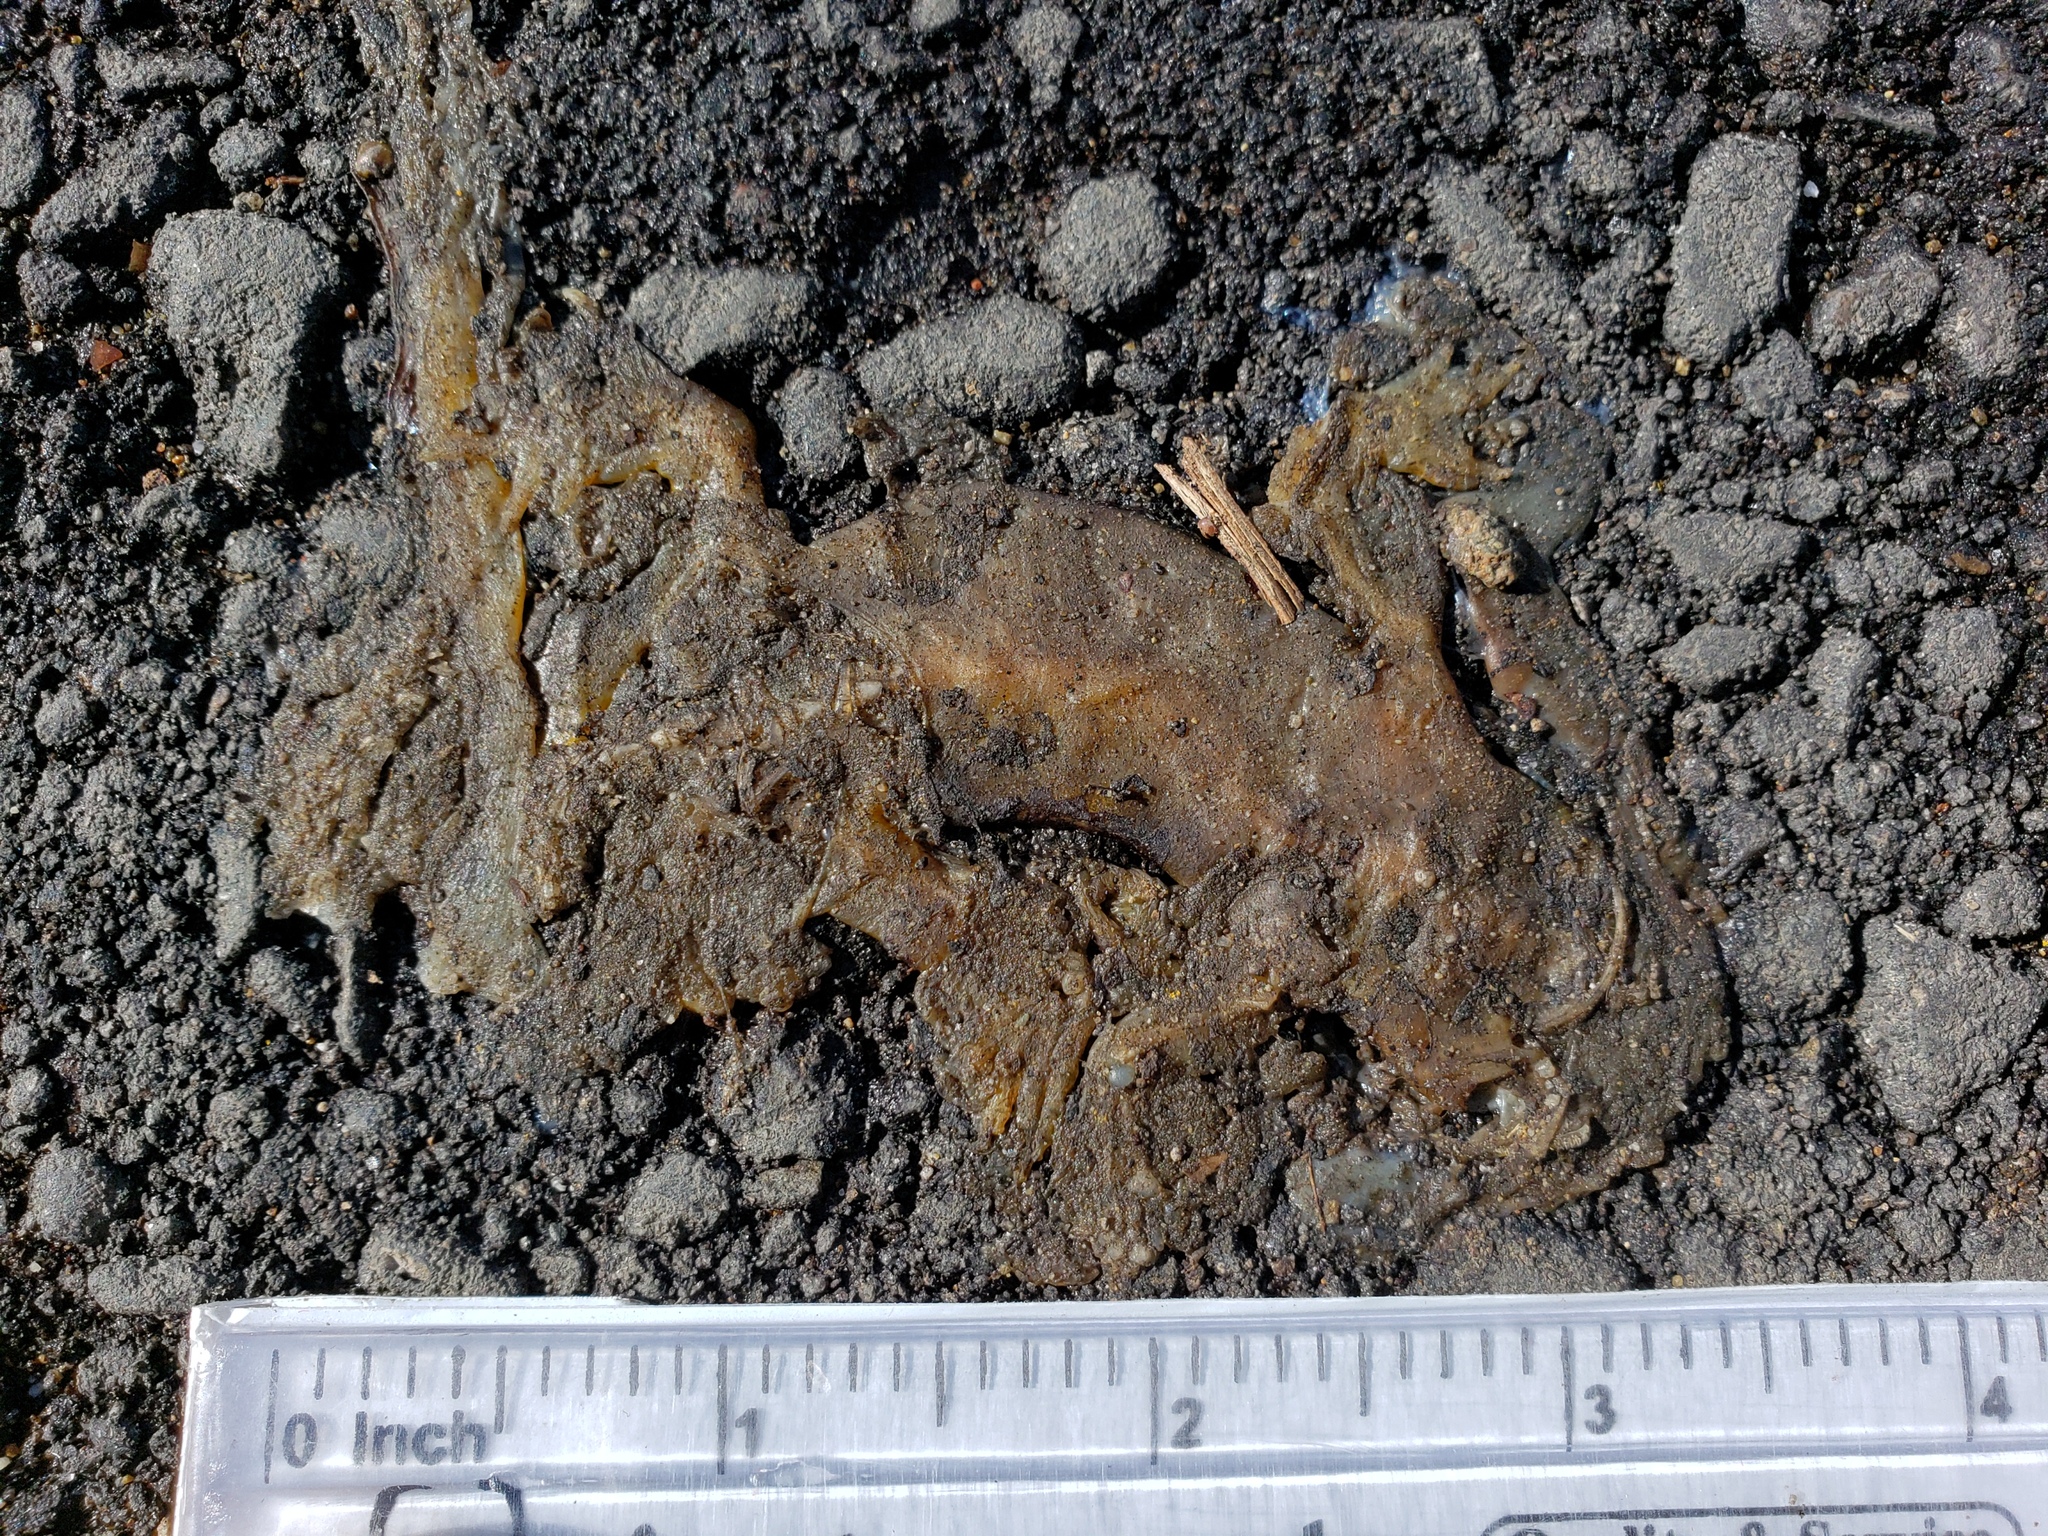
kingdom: Animalia
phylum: Chordata
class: Amphibia
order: Caudata
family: Salamandridae
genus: Taricha
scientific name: Taricha
